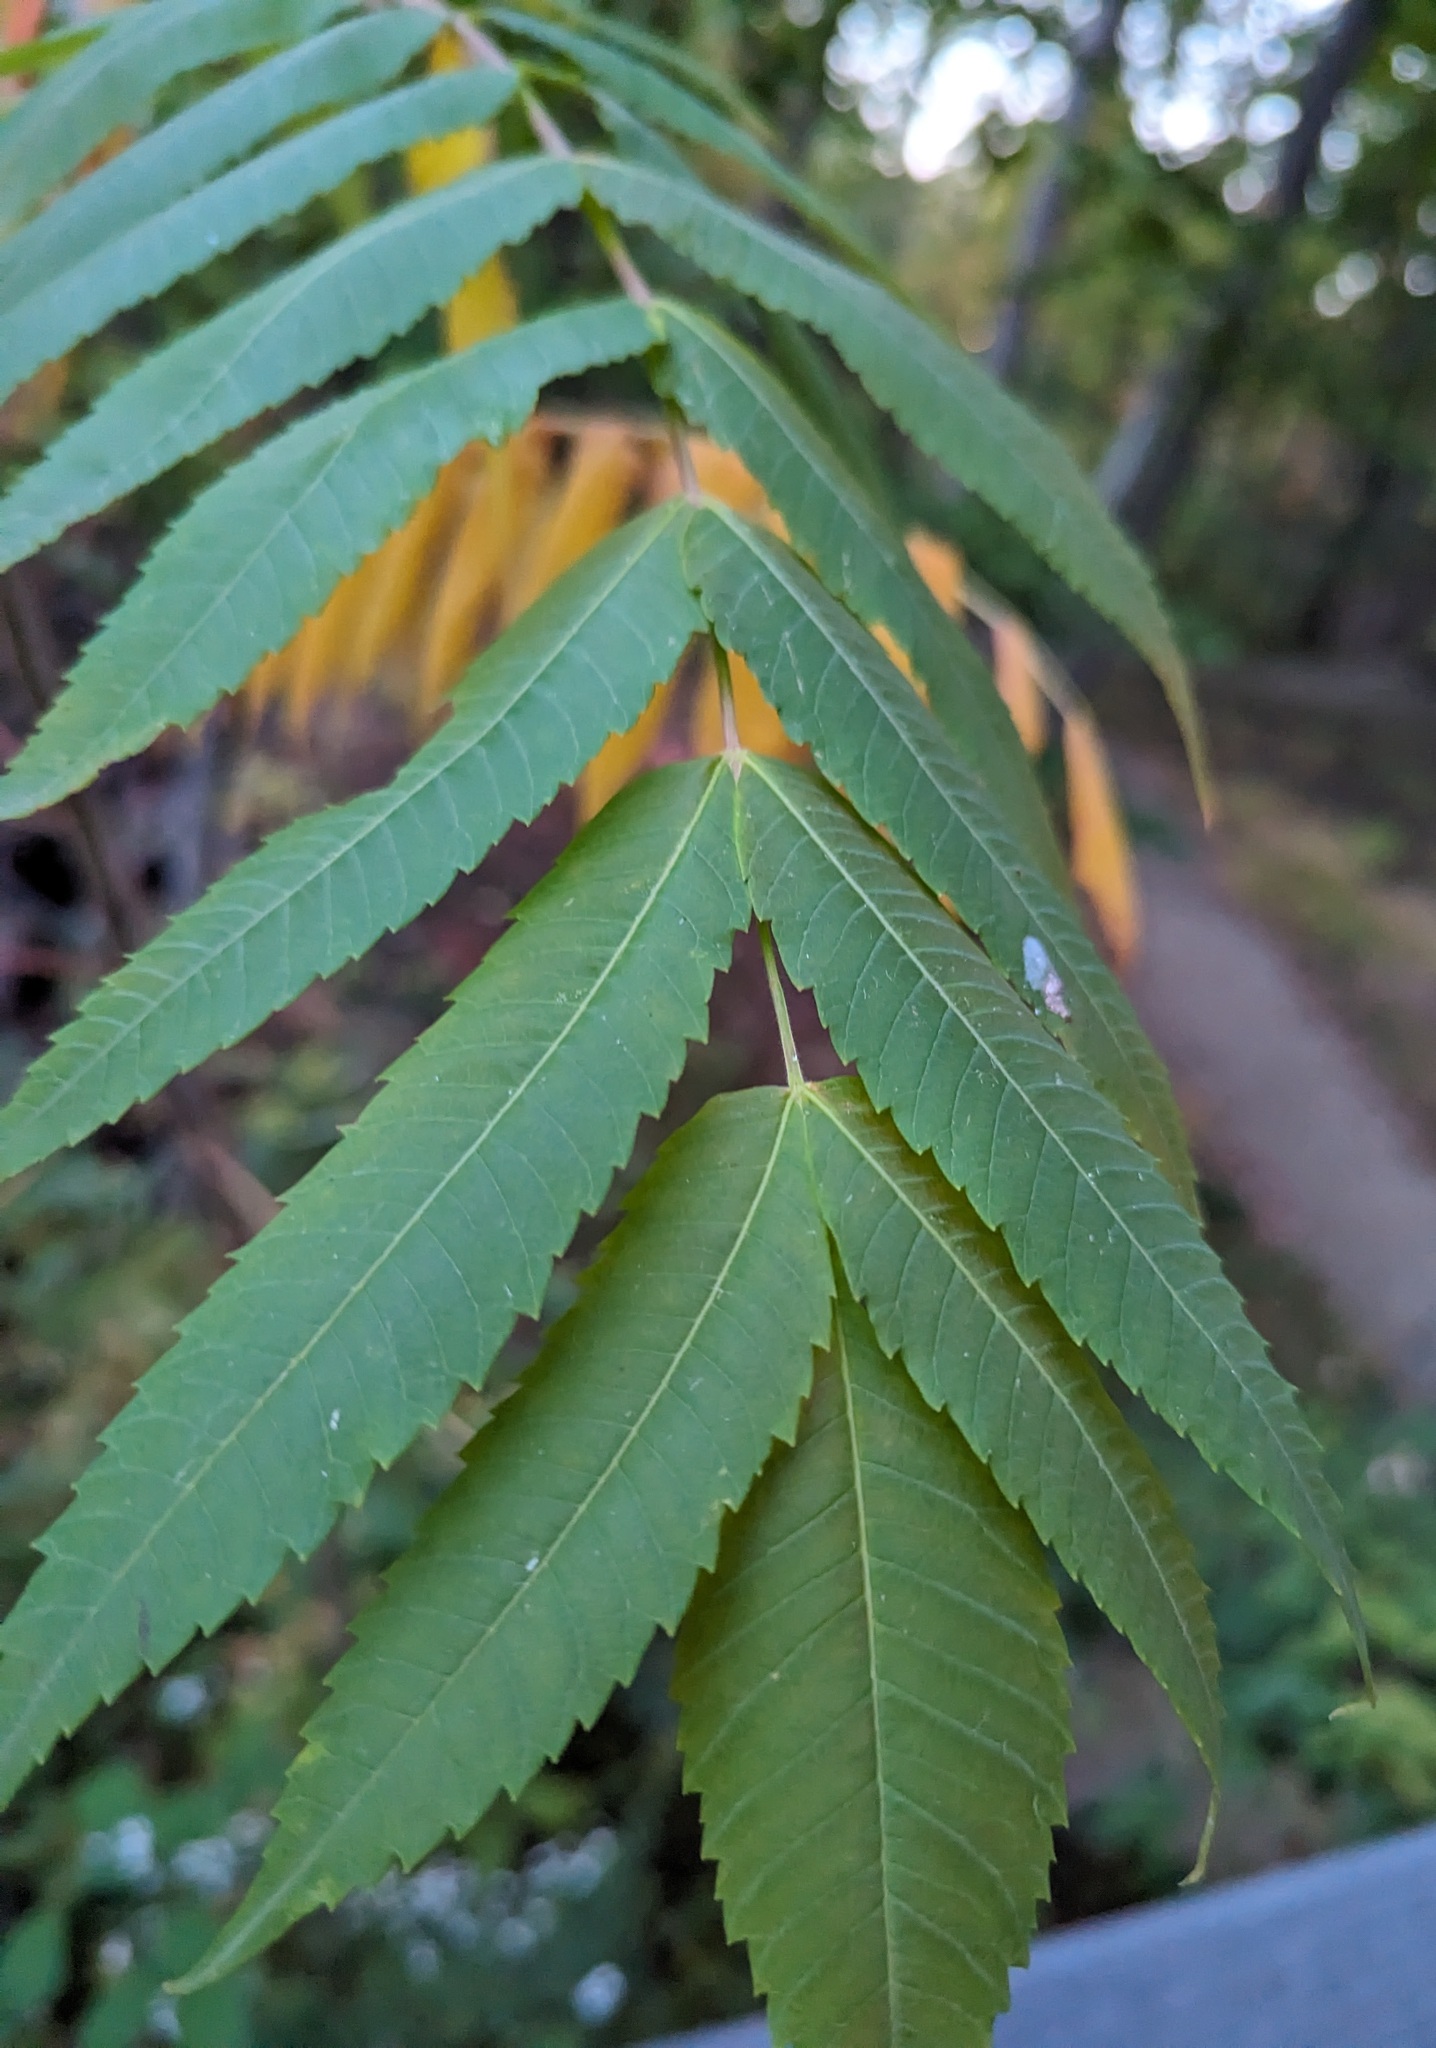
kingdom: Plantae
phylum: Tracheophyta
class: Magnoliopsida
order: Sapindales
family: Anacardiaceae
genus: Rhus
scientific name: Rhus typhina
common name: Staghorn sumac
